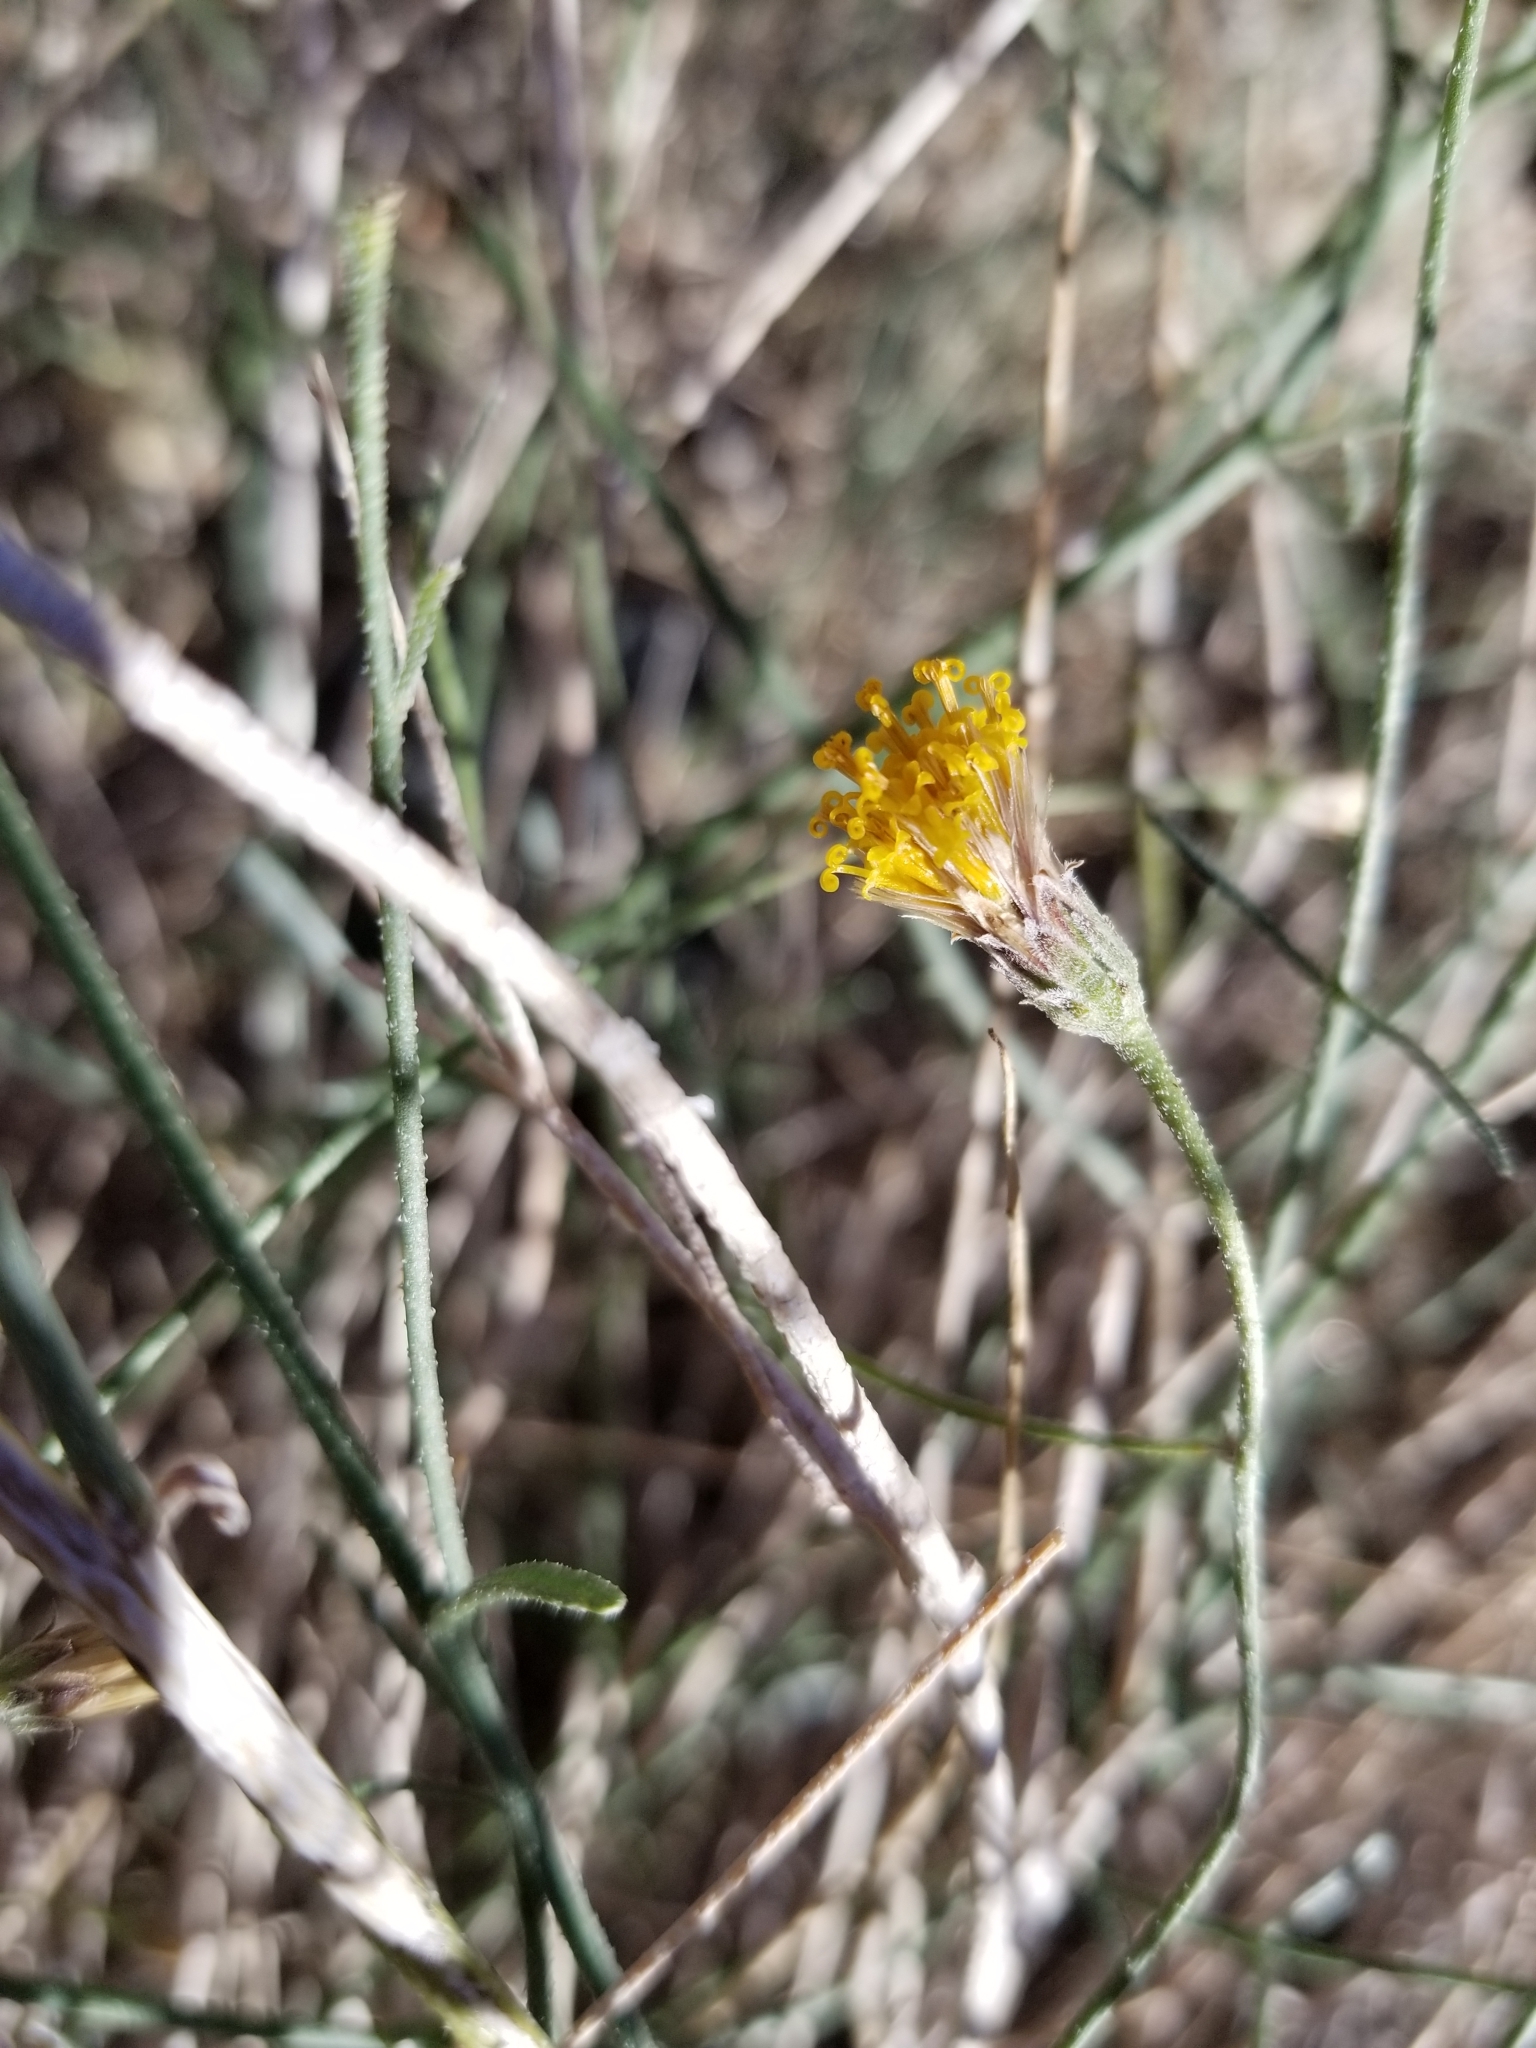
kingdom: Plantae
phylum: Tracheophyta
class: Magnoliopsida
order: Asterales
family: Asteraceae
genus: Bebbia
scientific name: Bebbia juncea
